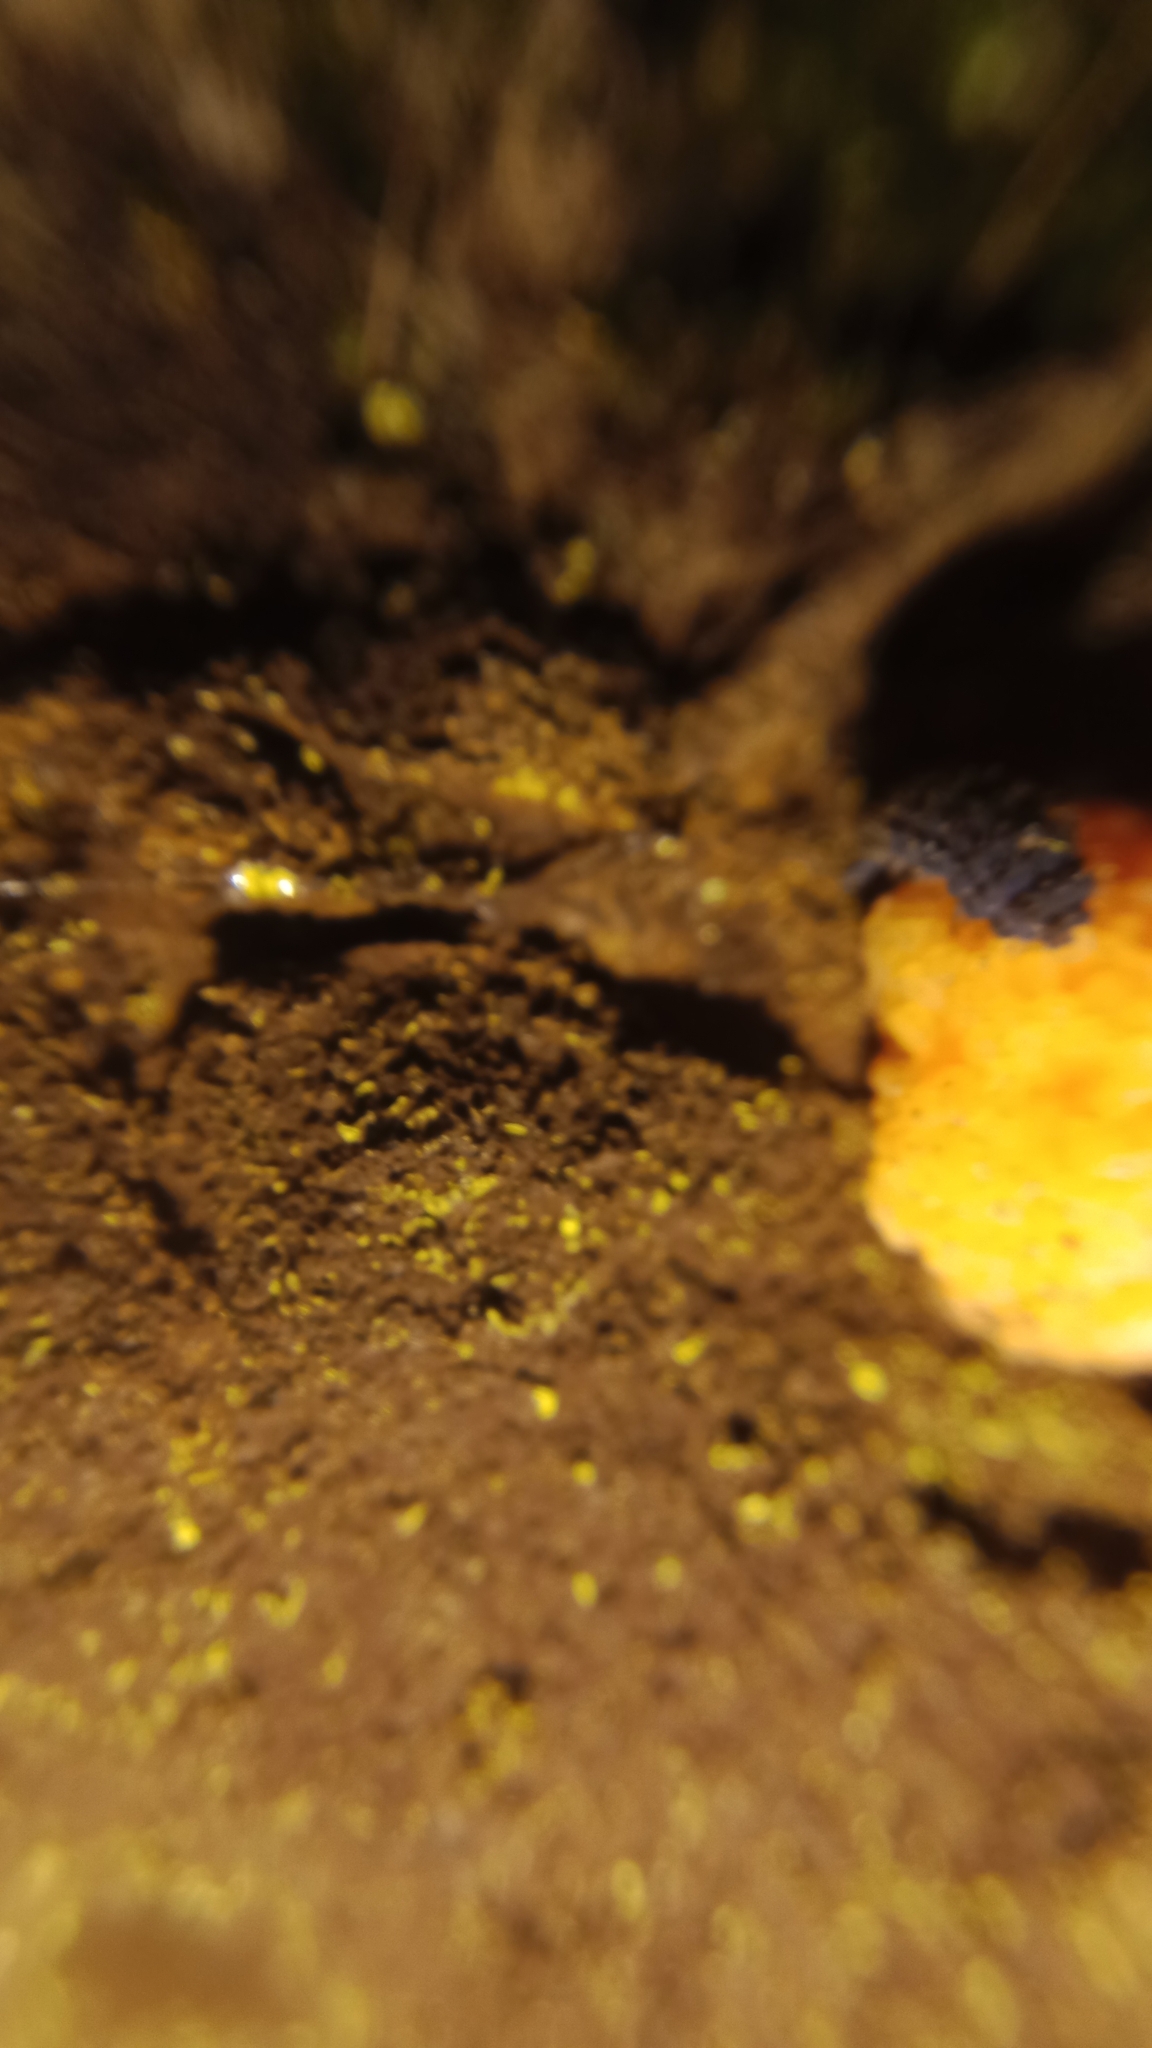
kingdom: Animalia
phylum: Arthropoda
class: Collembola
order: Poduromorpha
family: Neanuridae
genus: Morulina
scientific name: Morulina verrucosa
